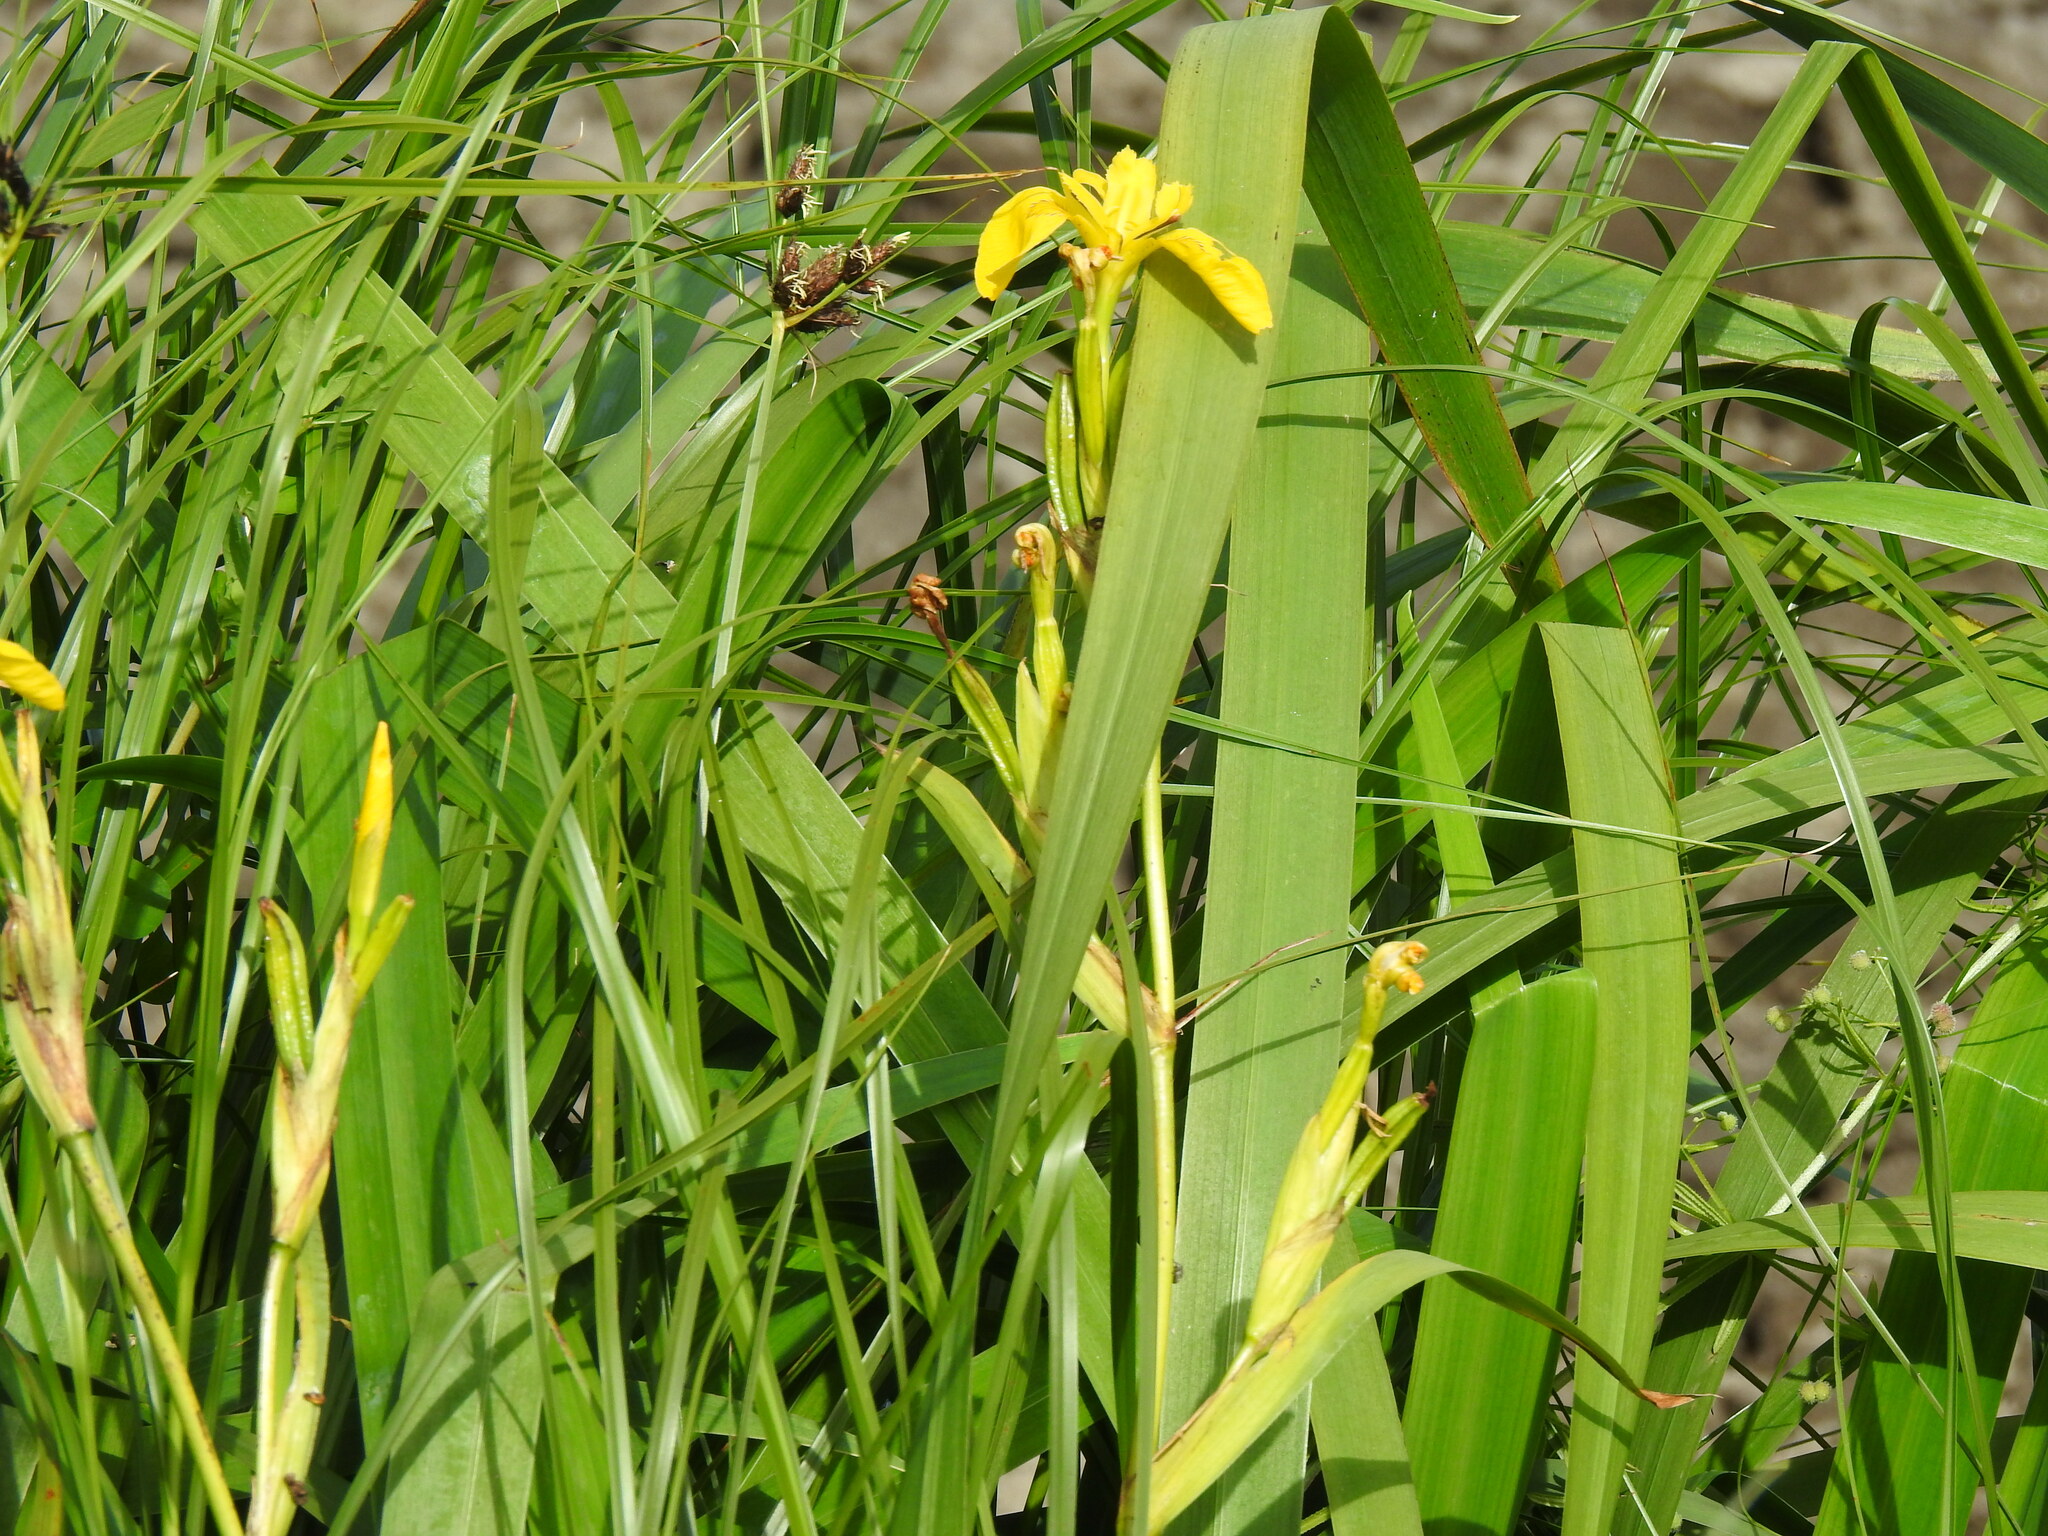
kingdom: Plantae
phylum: Tracheophyta
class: Liliopsida
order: Asparagales
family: Iridaceae
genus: Iris
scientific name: Iris pseudacorus
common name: Yellow flag
